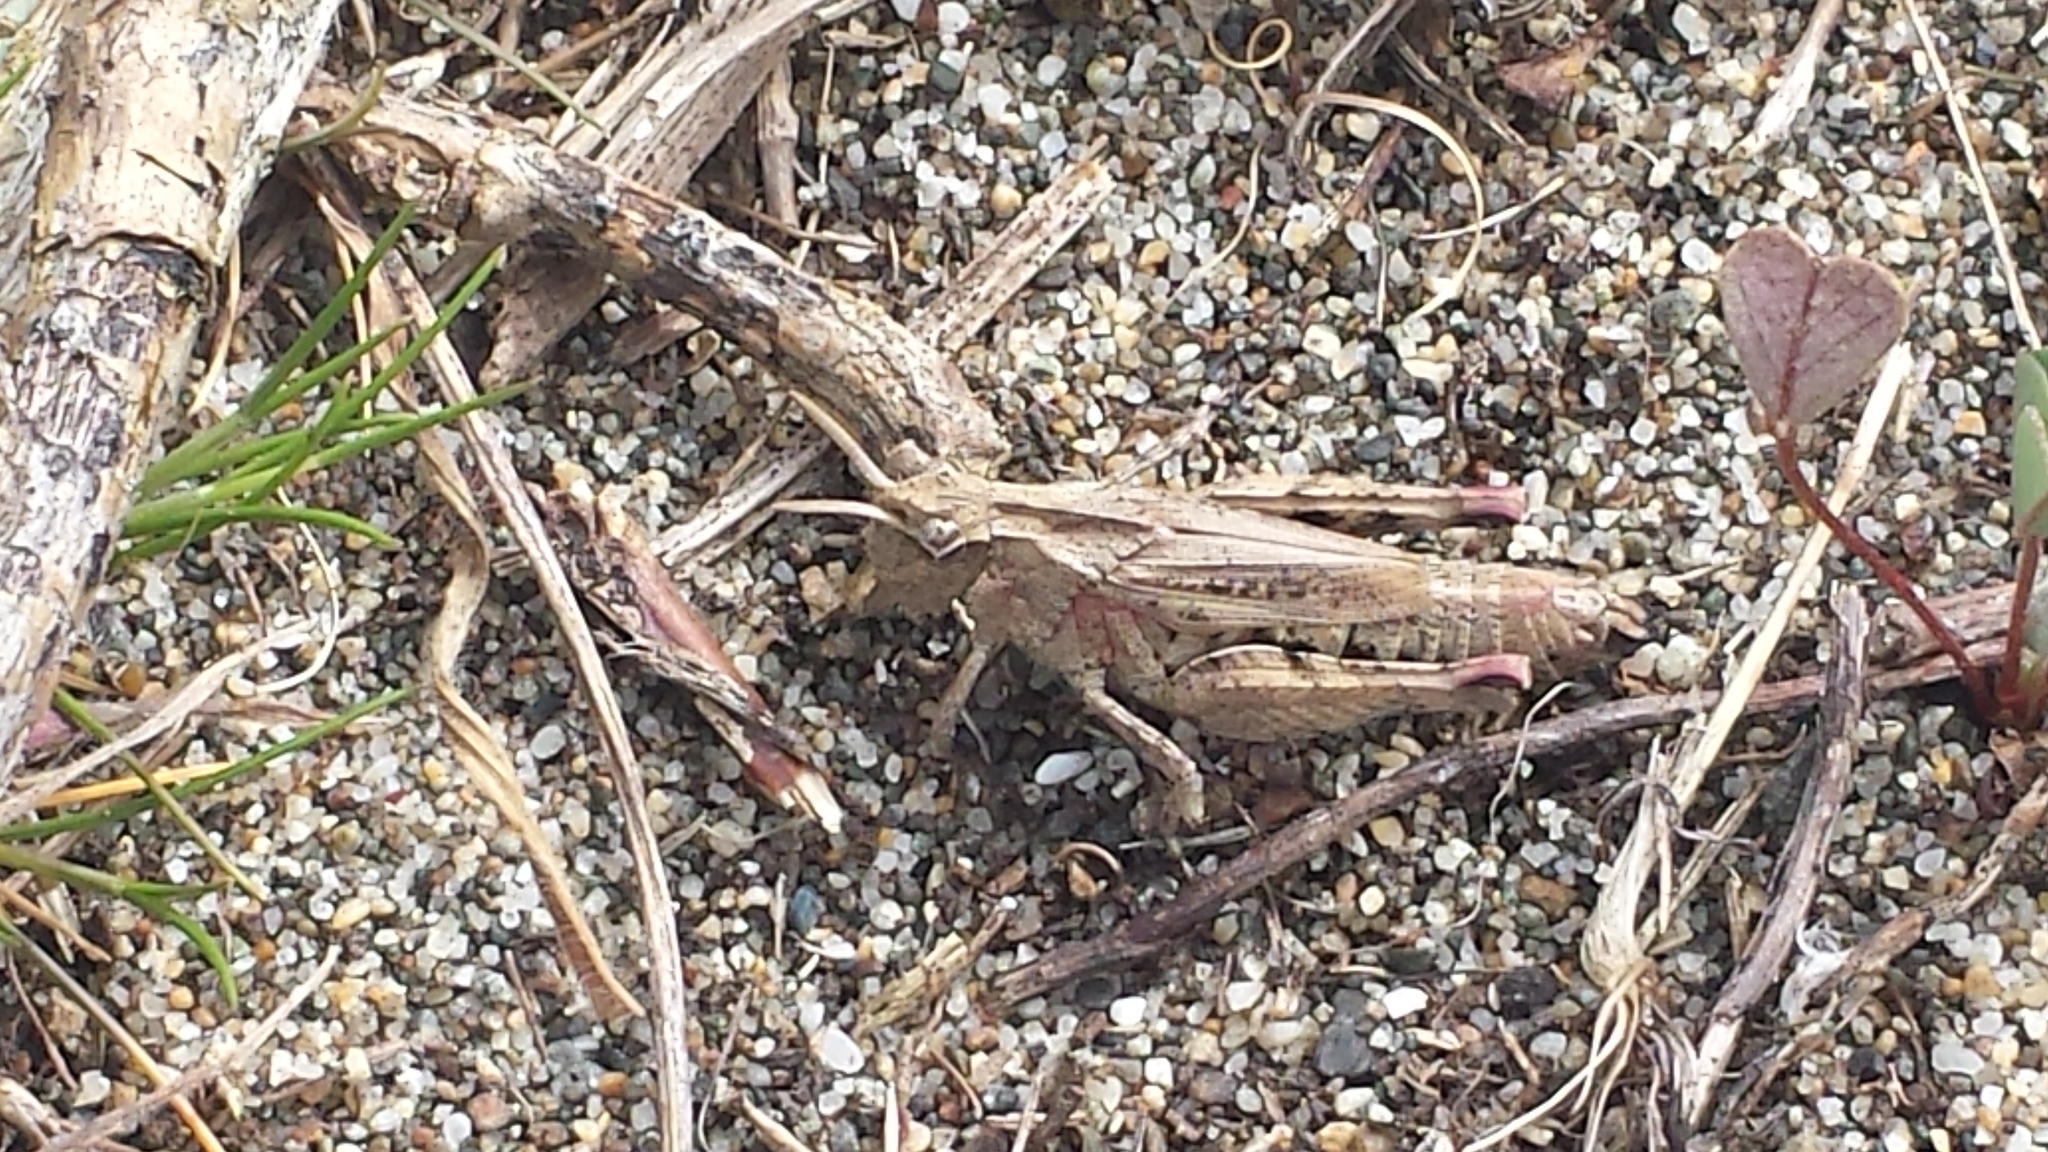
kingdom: Animalia
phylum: Arthropoda
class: Insecta
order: Orthoptera
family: Acrididae
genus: Chimarocephala
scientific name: Chimarocephala pacifica
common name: Painted meadow grasshopper
